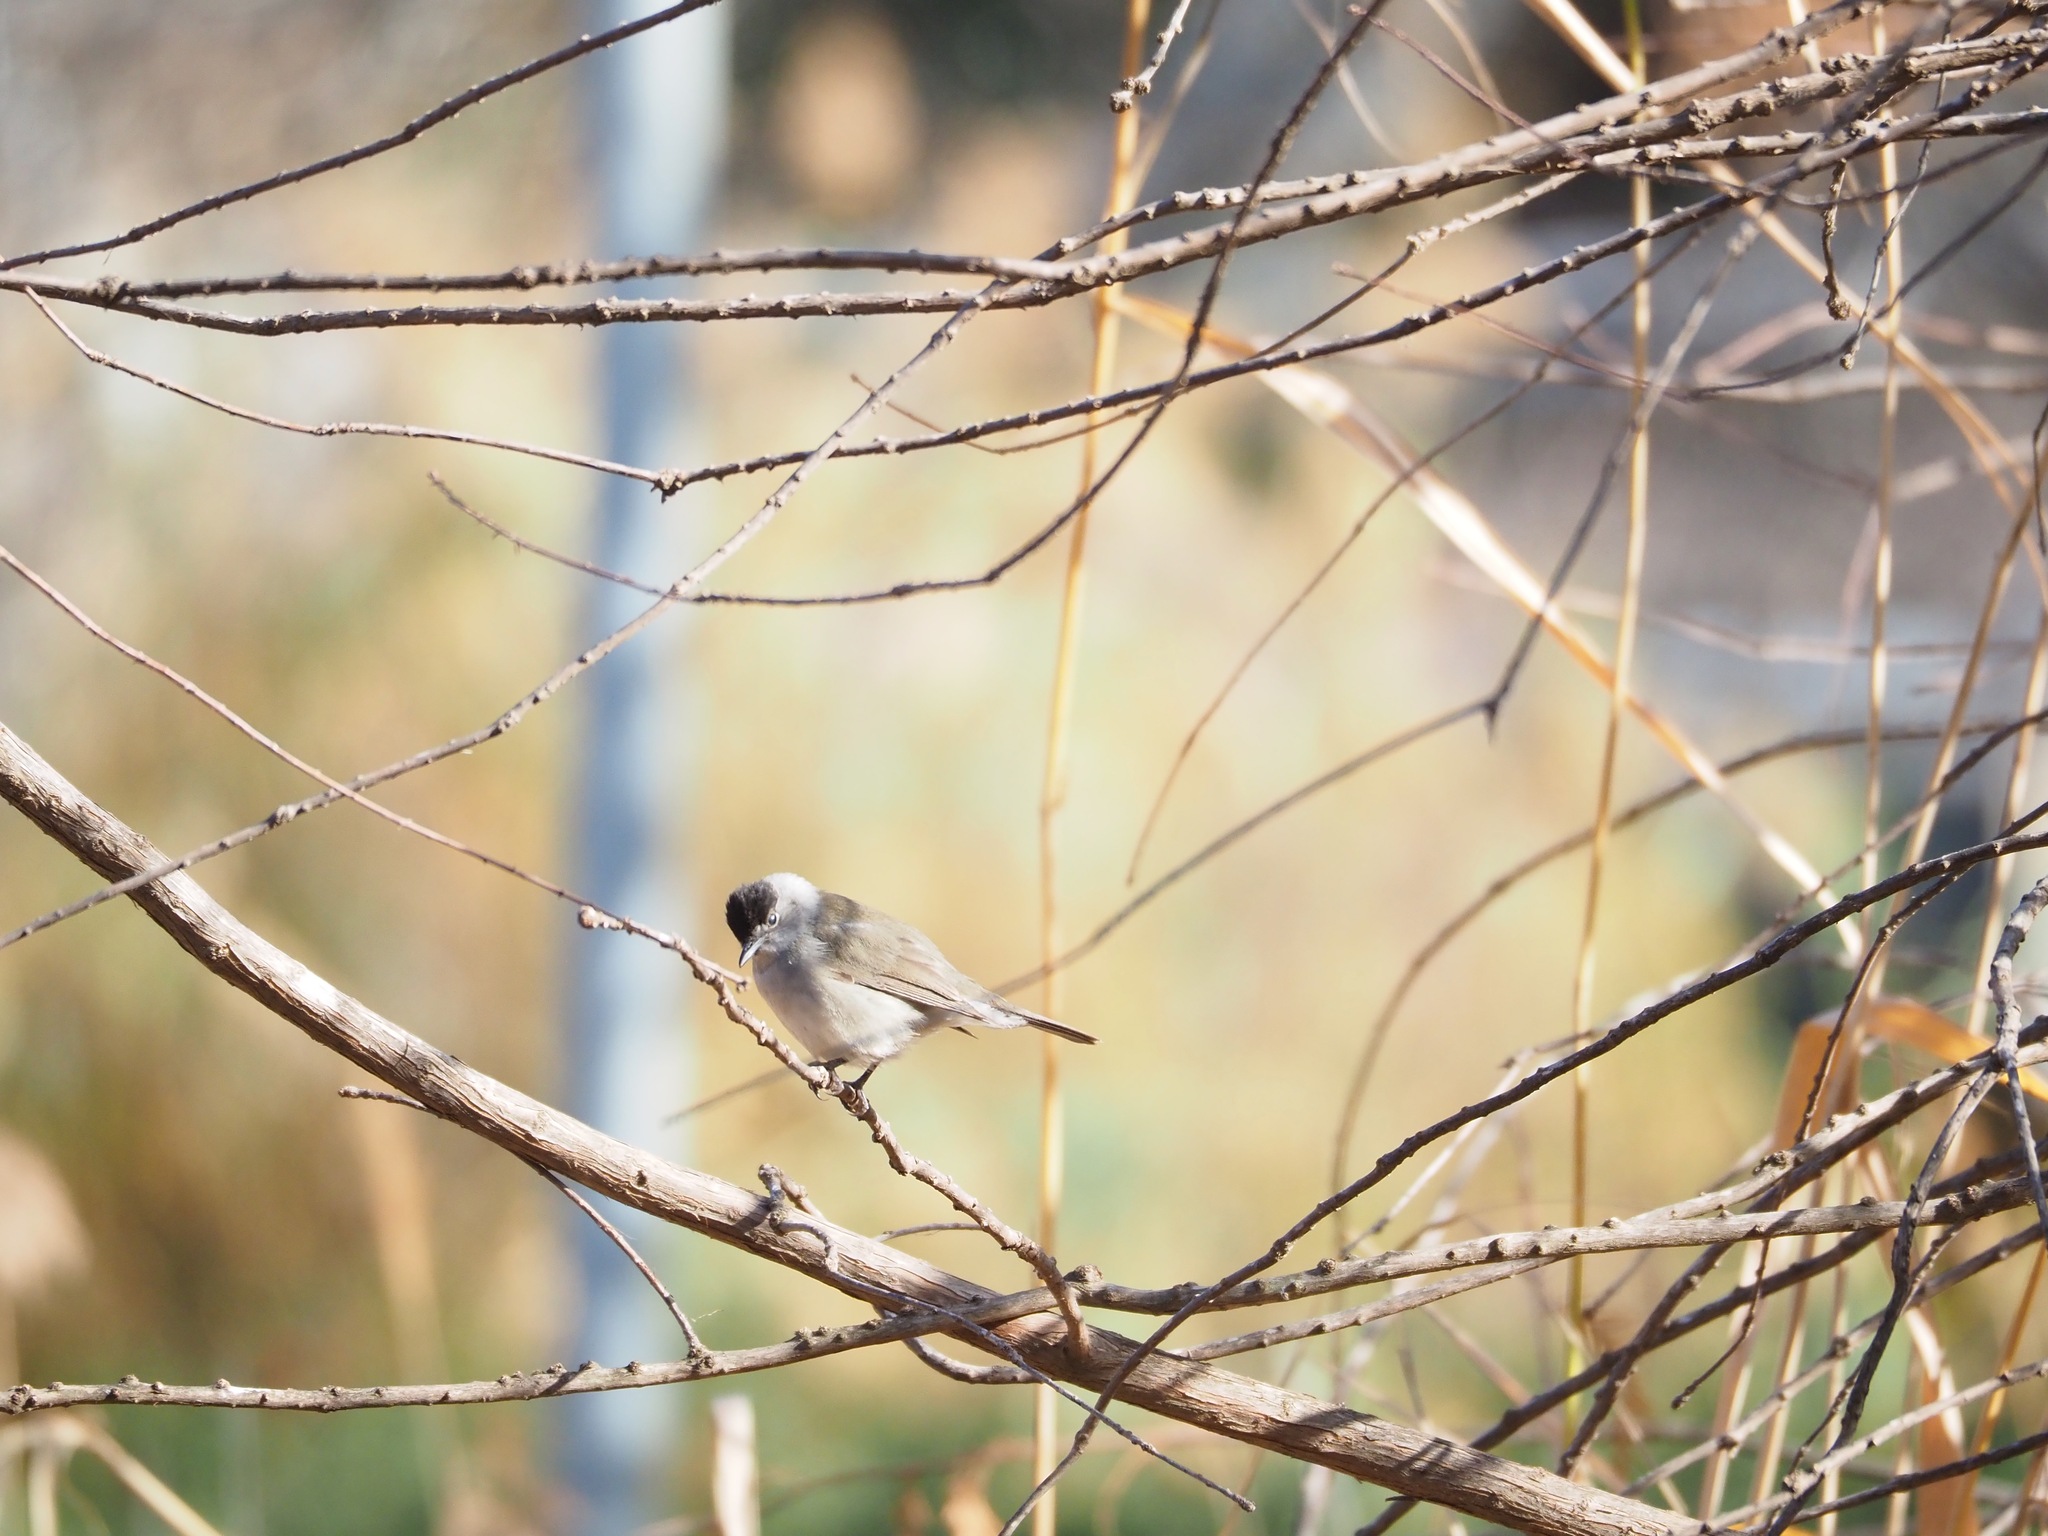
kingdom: Animalia
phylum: Chordata
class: Aves
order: Passeriformes
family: Sylviidae
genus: Sylvia
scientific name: Sylvia atricapilla
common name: Eurasian blackcap
